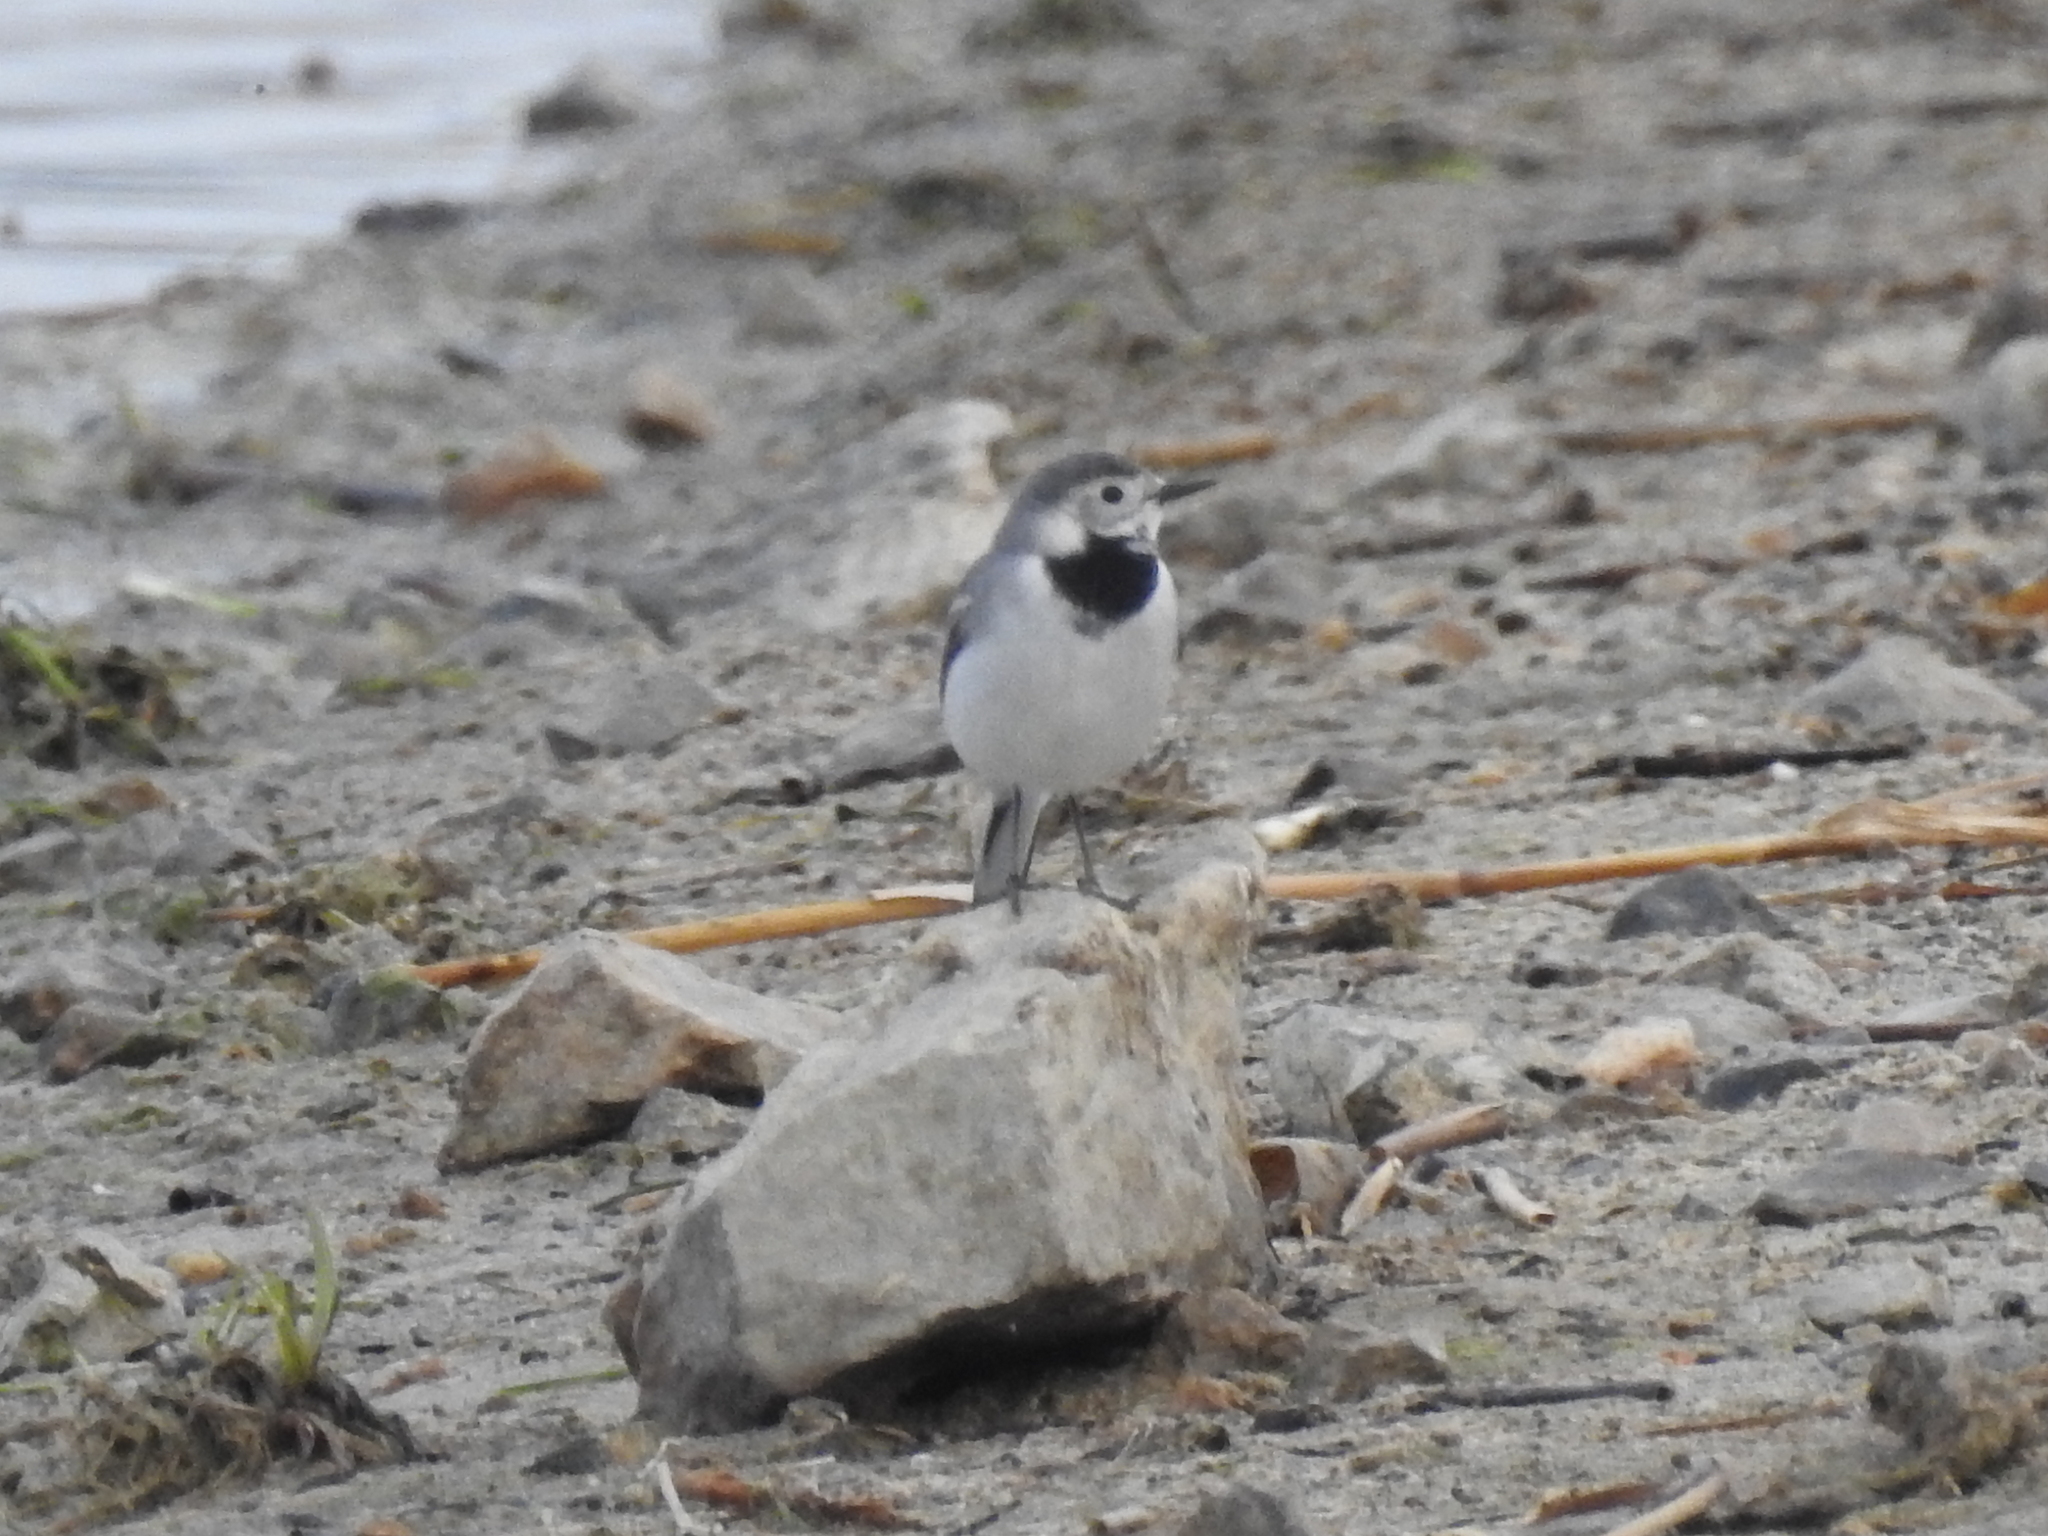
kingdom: Animalia
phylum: Chordata
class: Aves
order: Passeriformes
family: Motacillidae
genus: Motacilla
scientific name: Motacilla alba
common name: White wagtail
